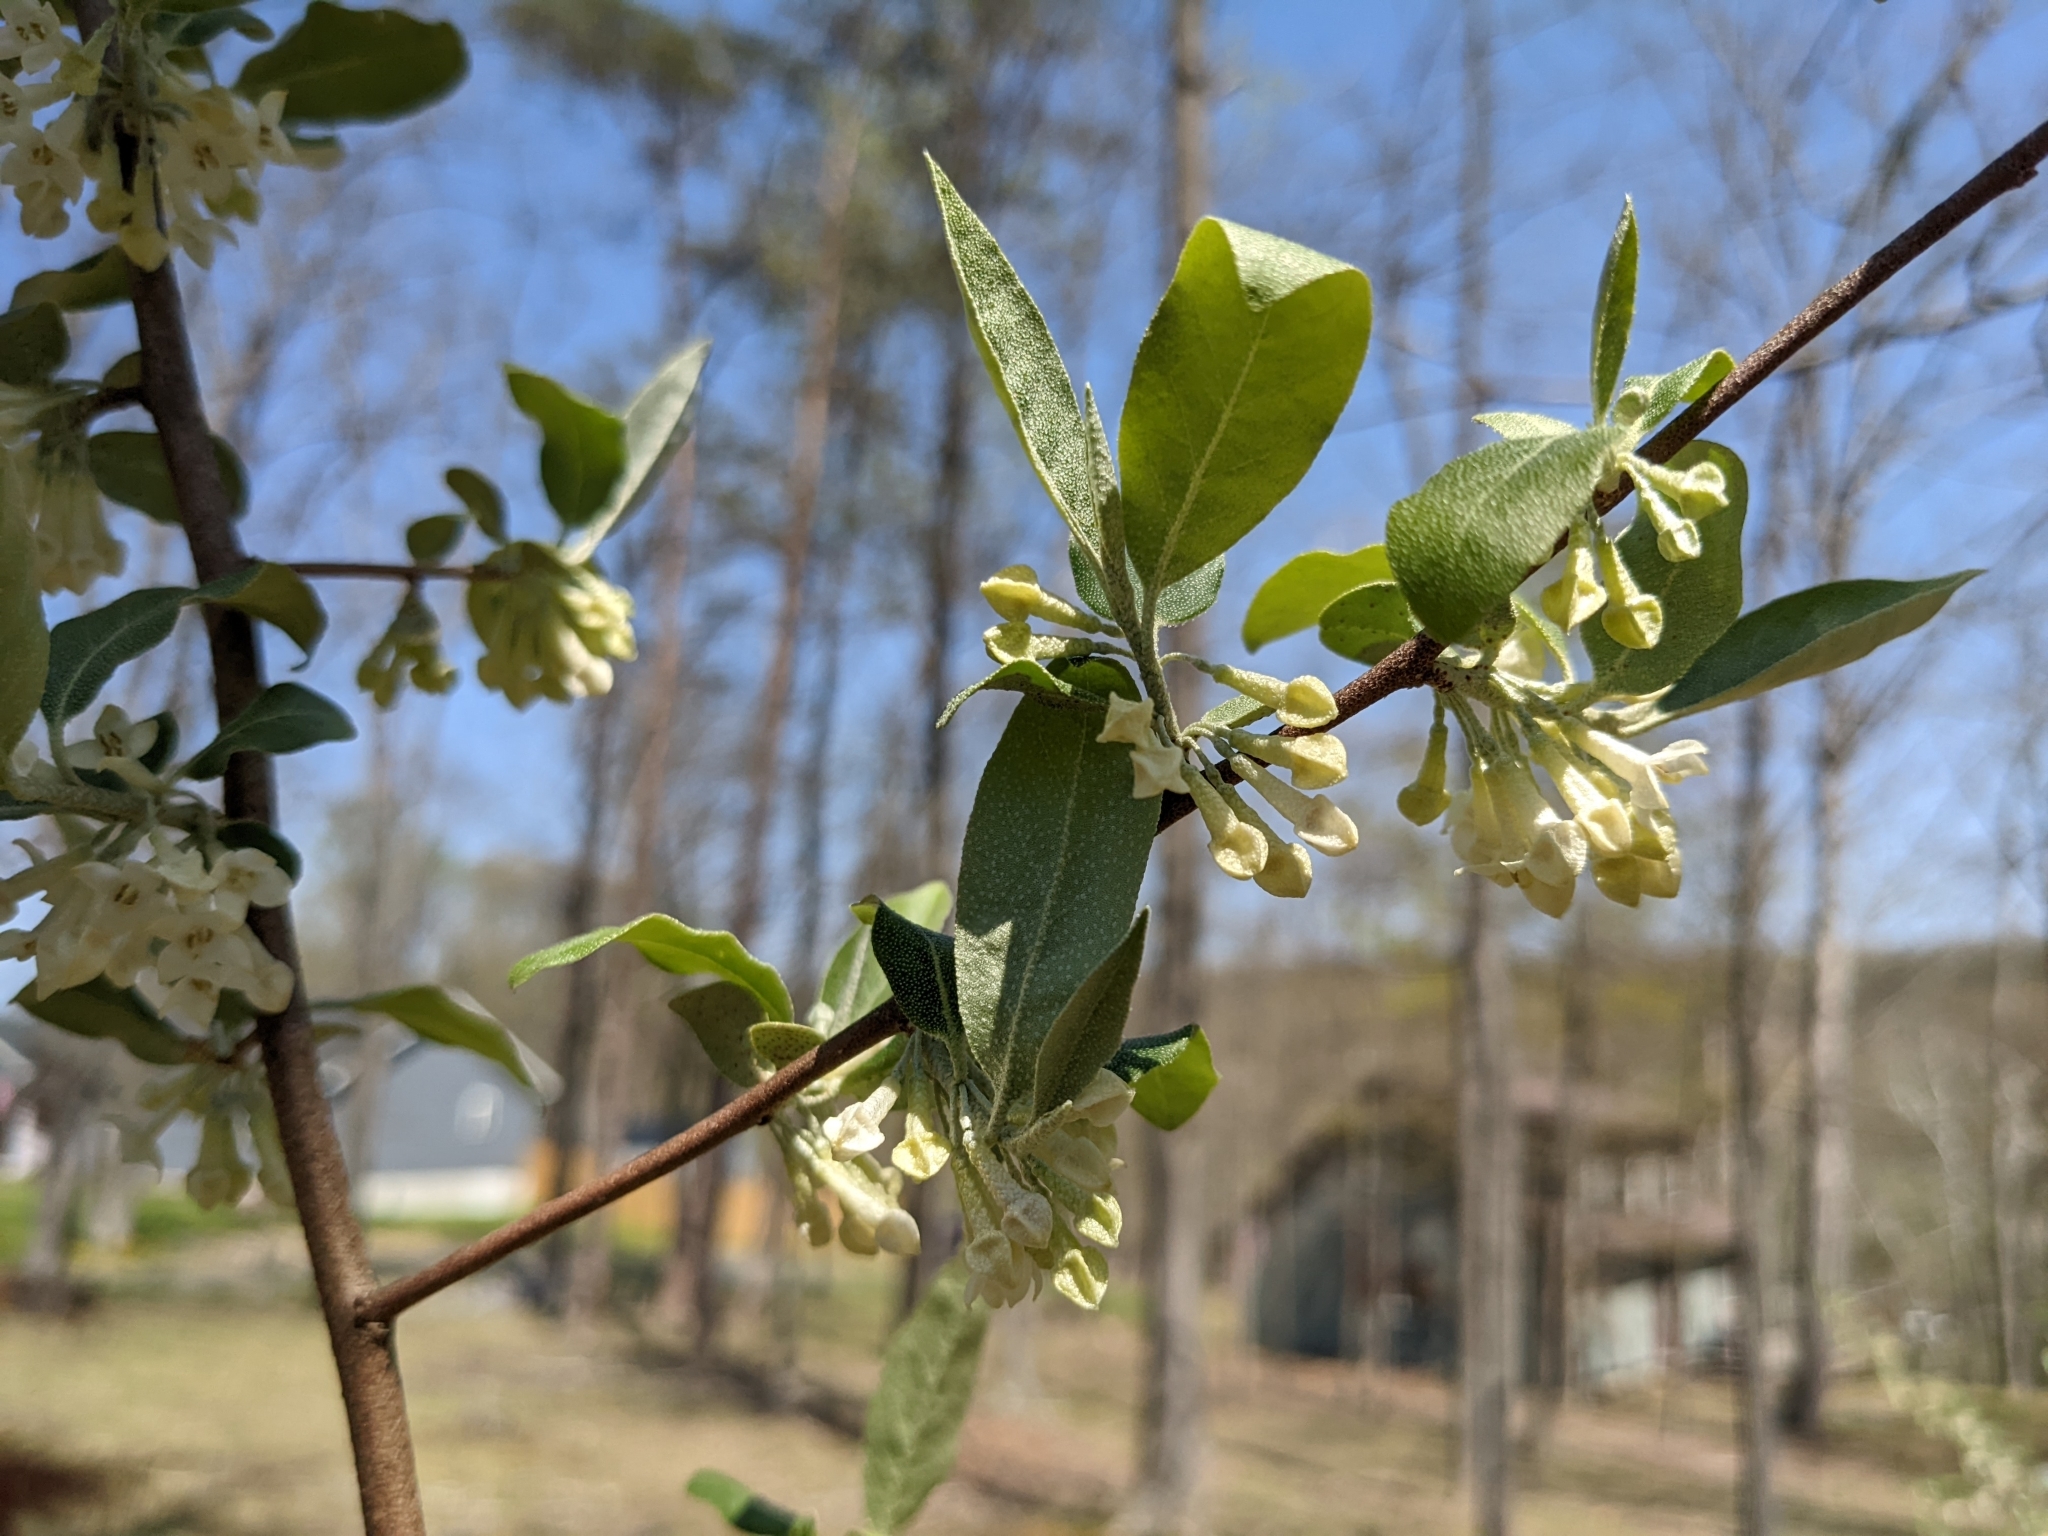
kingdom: Plantae
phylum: Tracheophyta
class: Magnoliopsida
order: Rosales
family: Elaeagnaceae
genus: Elaeagnus
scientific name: Elaeagnus umbellata
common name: Autumn olive
